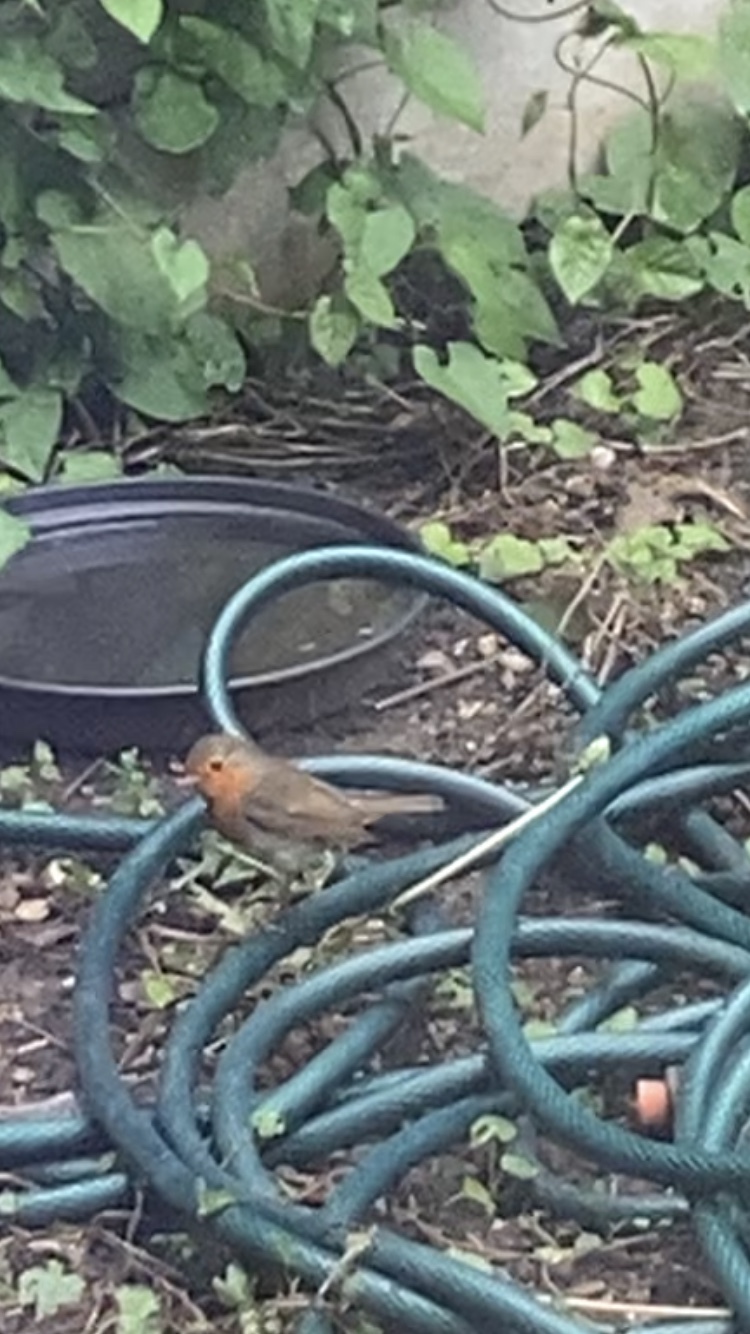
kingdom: Animalia
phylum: Chordata
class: Aves
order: Passeriformes
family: Muscicapidae
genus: Erithacus
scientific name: Erithacus rubecula
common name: European robin
